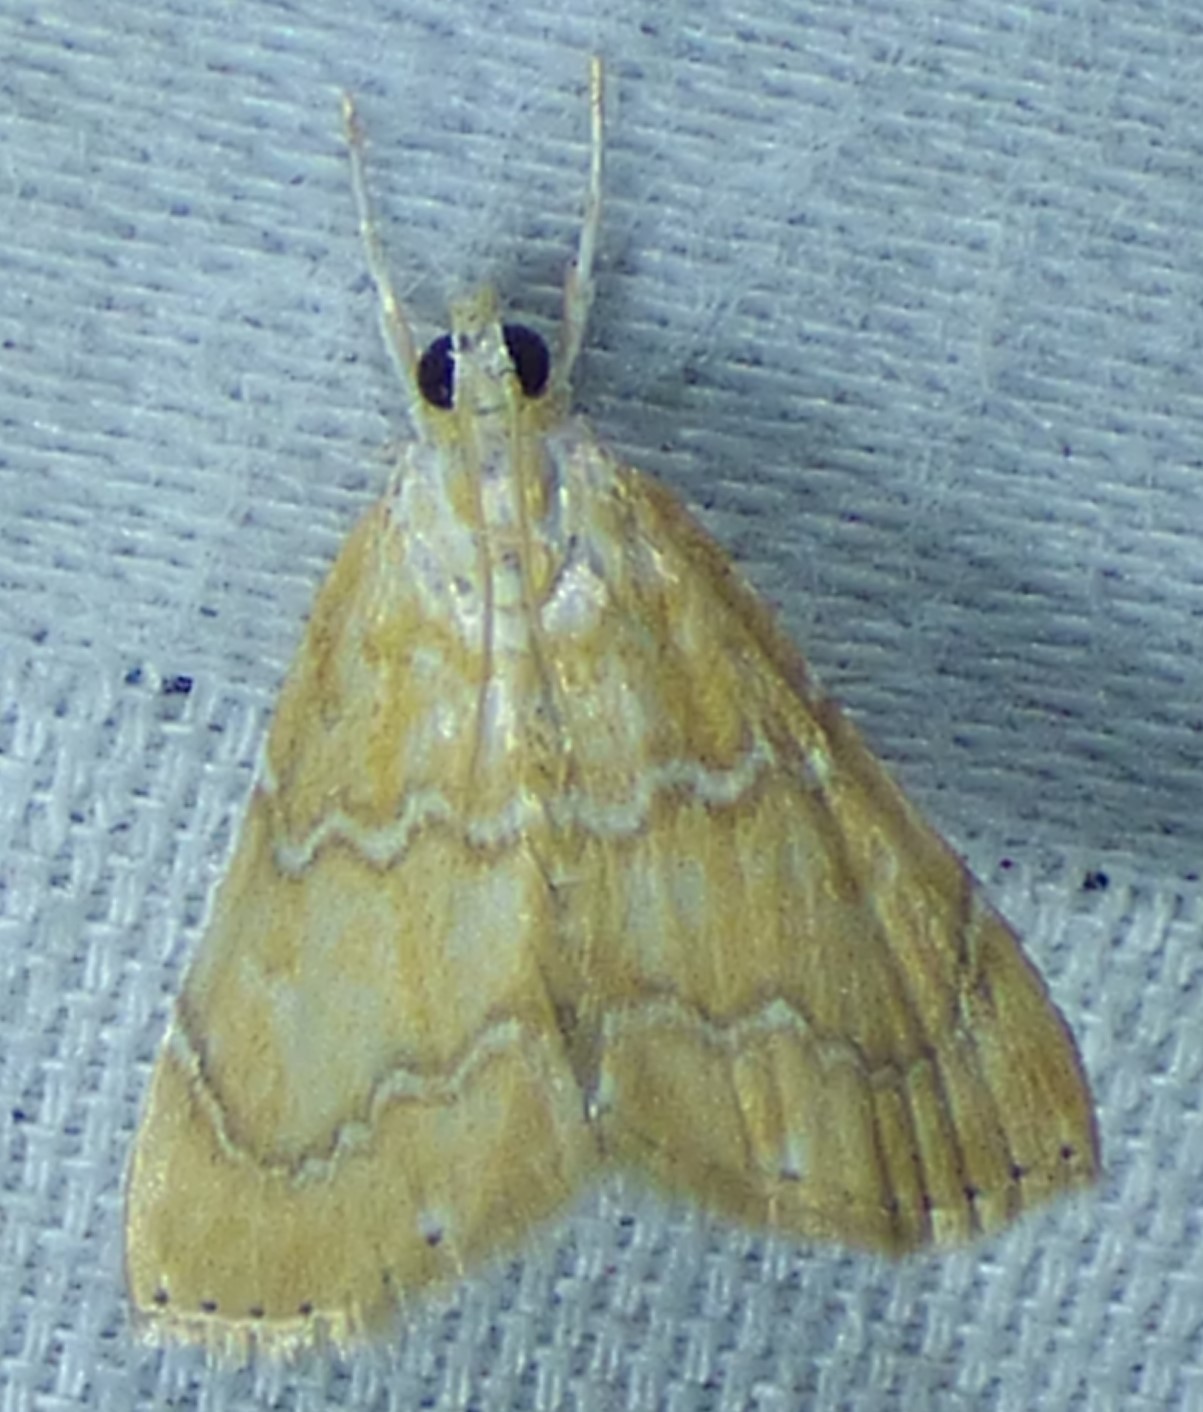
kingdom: Animalia
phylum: Arthropoda
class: Insecta
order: Lepidoptera
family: Crambidae
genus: Glaphyria
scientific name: Glaphyria sesquistrialis
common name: White-roped glaphyria
